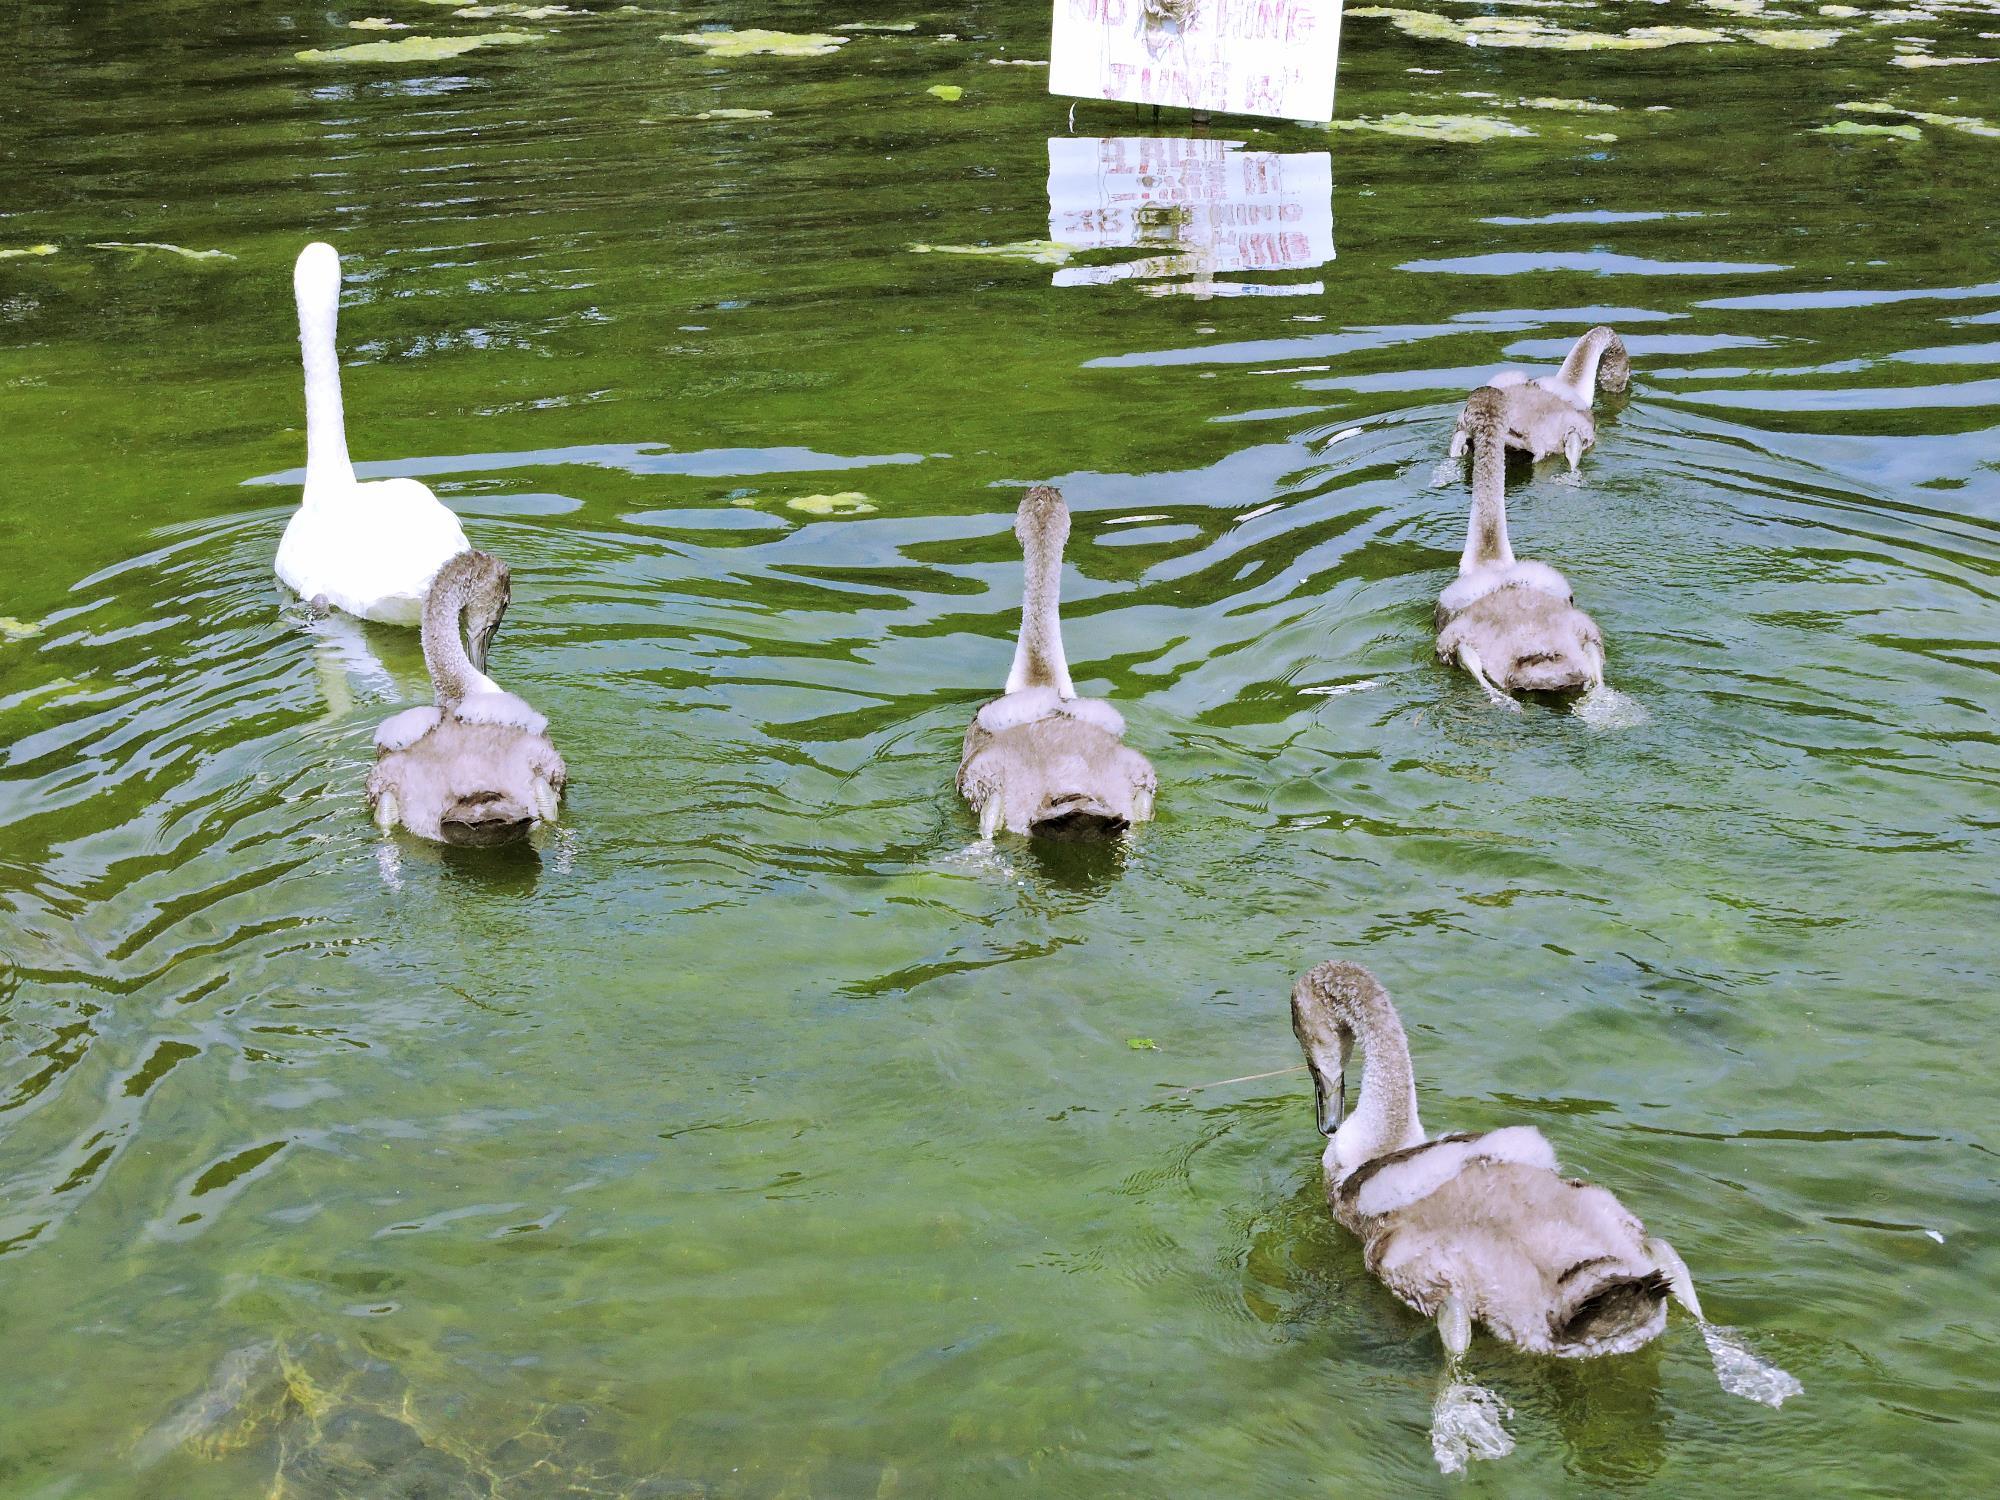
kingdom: Animalia
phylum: Chordata
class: Aves
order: Anseriformes
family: Anatidae
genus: Cygnus
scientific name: Cygnus olor
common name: Mute swan
